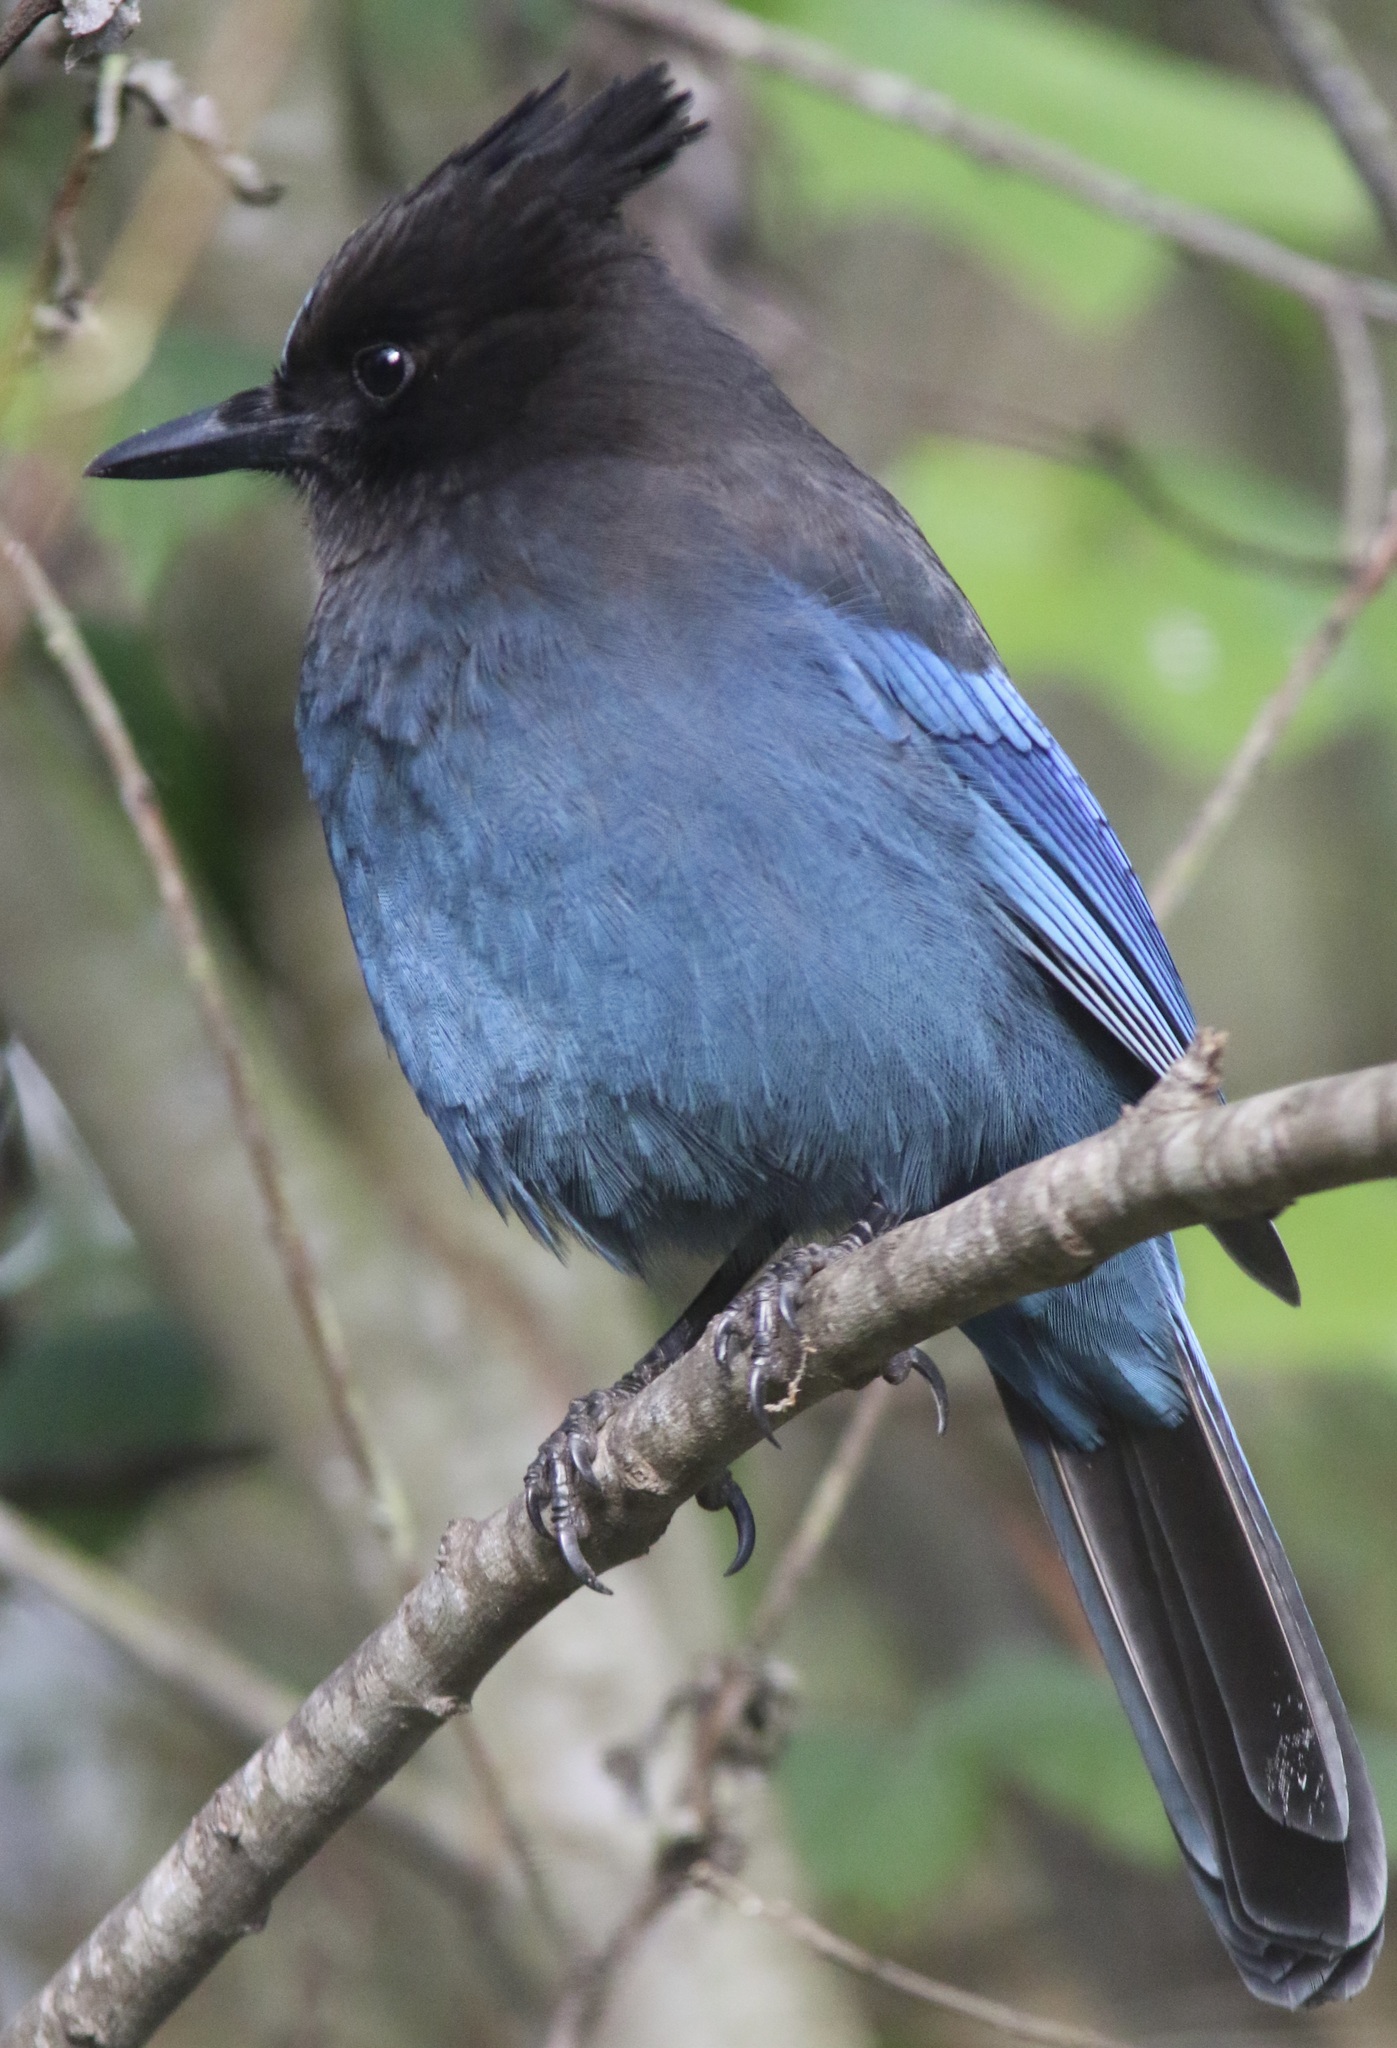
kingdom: Animalia
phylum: Chordata
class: Aves
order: Passeriformes
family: Corvidae
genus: Cyanocitta
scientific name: Cyanocitta stelleri
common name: Steller's jay
